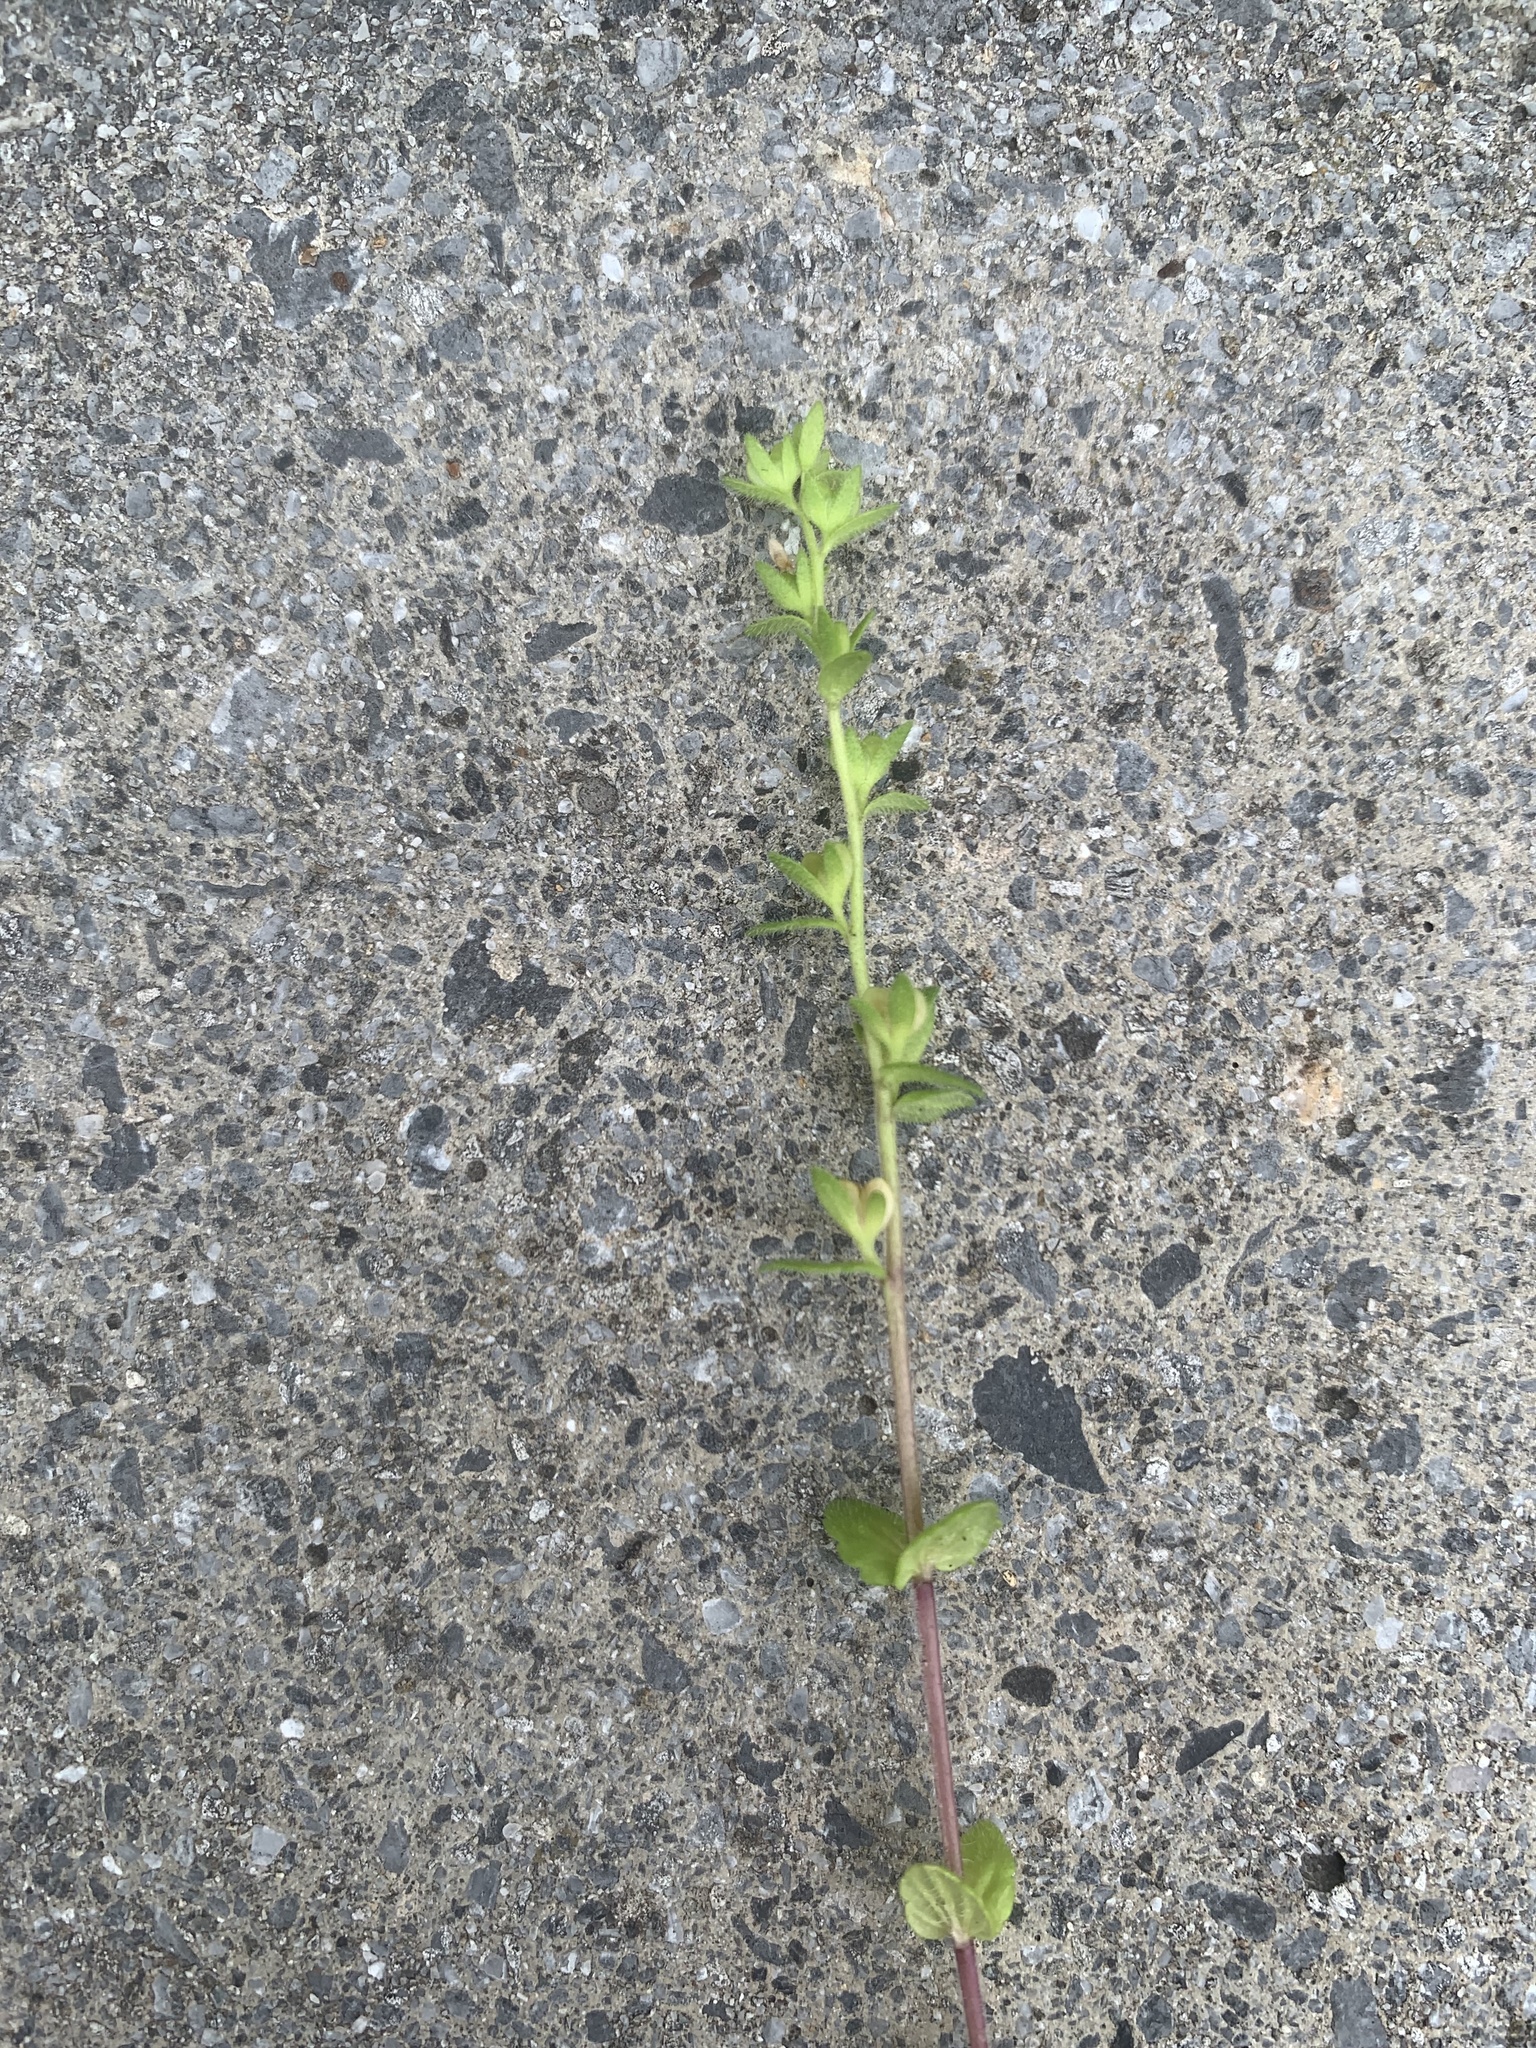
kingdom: Plantae
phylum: Tracheophyta
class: Magnoliopsida
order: Lamiales
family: Plantaginaceae
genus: Veronica
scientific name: Veronica arvensis
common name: Corn speedwell
